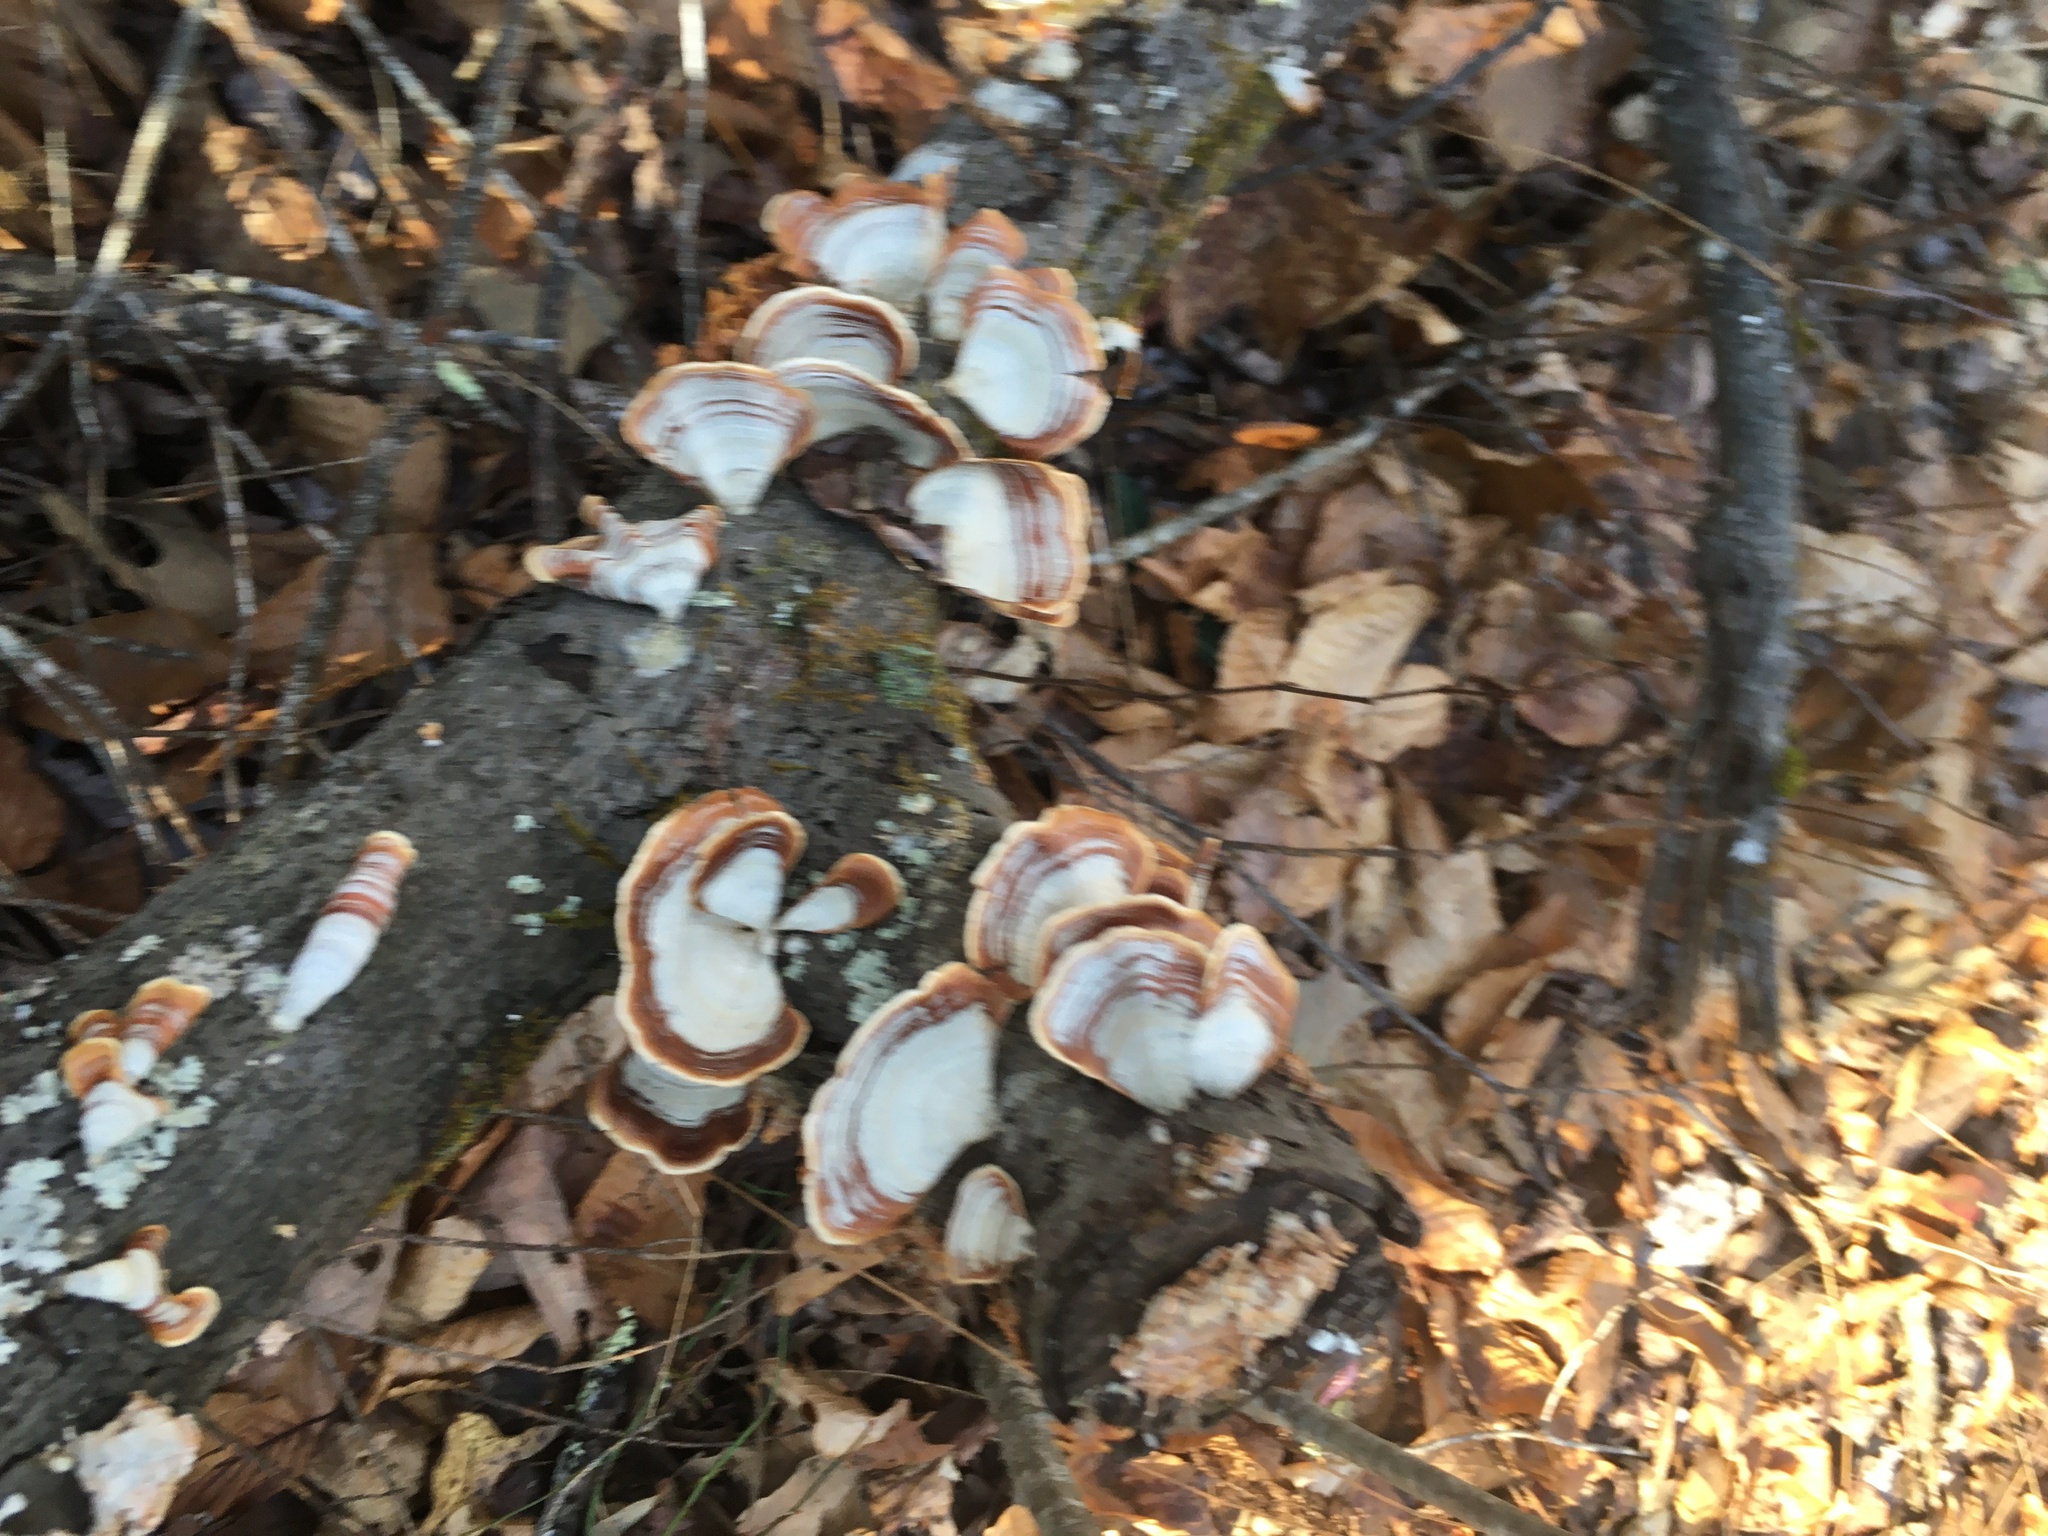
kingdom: Fungi
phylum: Basidiomycota
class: Agaricomycetes
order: Russulales
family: Stereaceae
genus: Stereum
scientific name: Stereum lobatum
